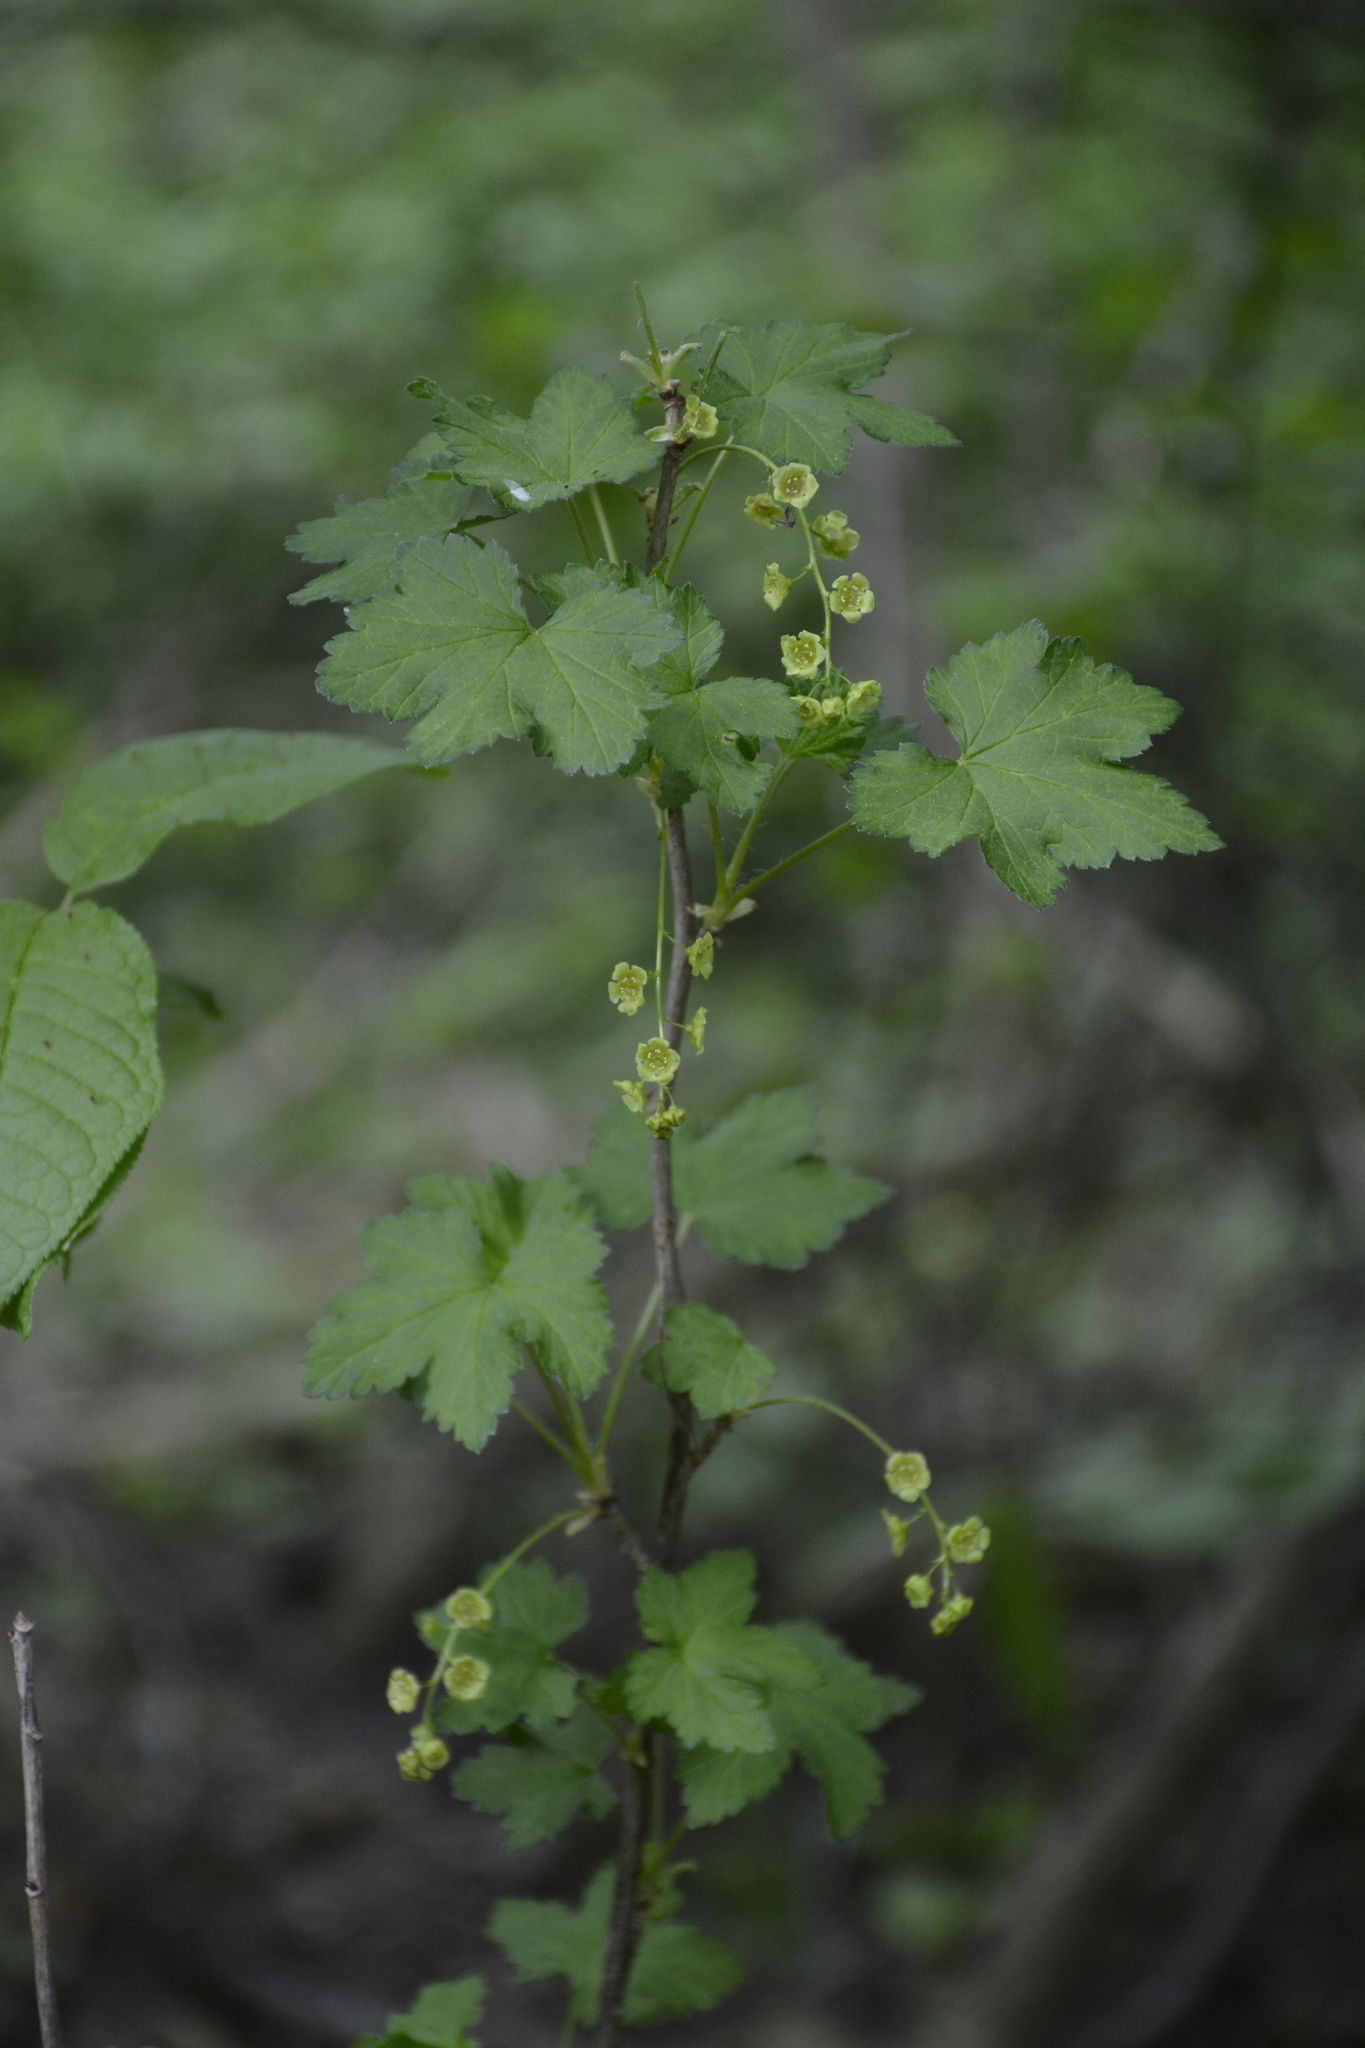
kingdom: Plantae
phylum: Tracheophyta
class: Magnoliopsida
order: Saxifragales
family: Grossulariaceae
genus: Ribes
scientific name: Ribes spicatum
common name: Downy currant
